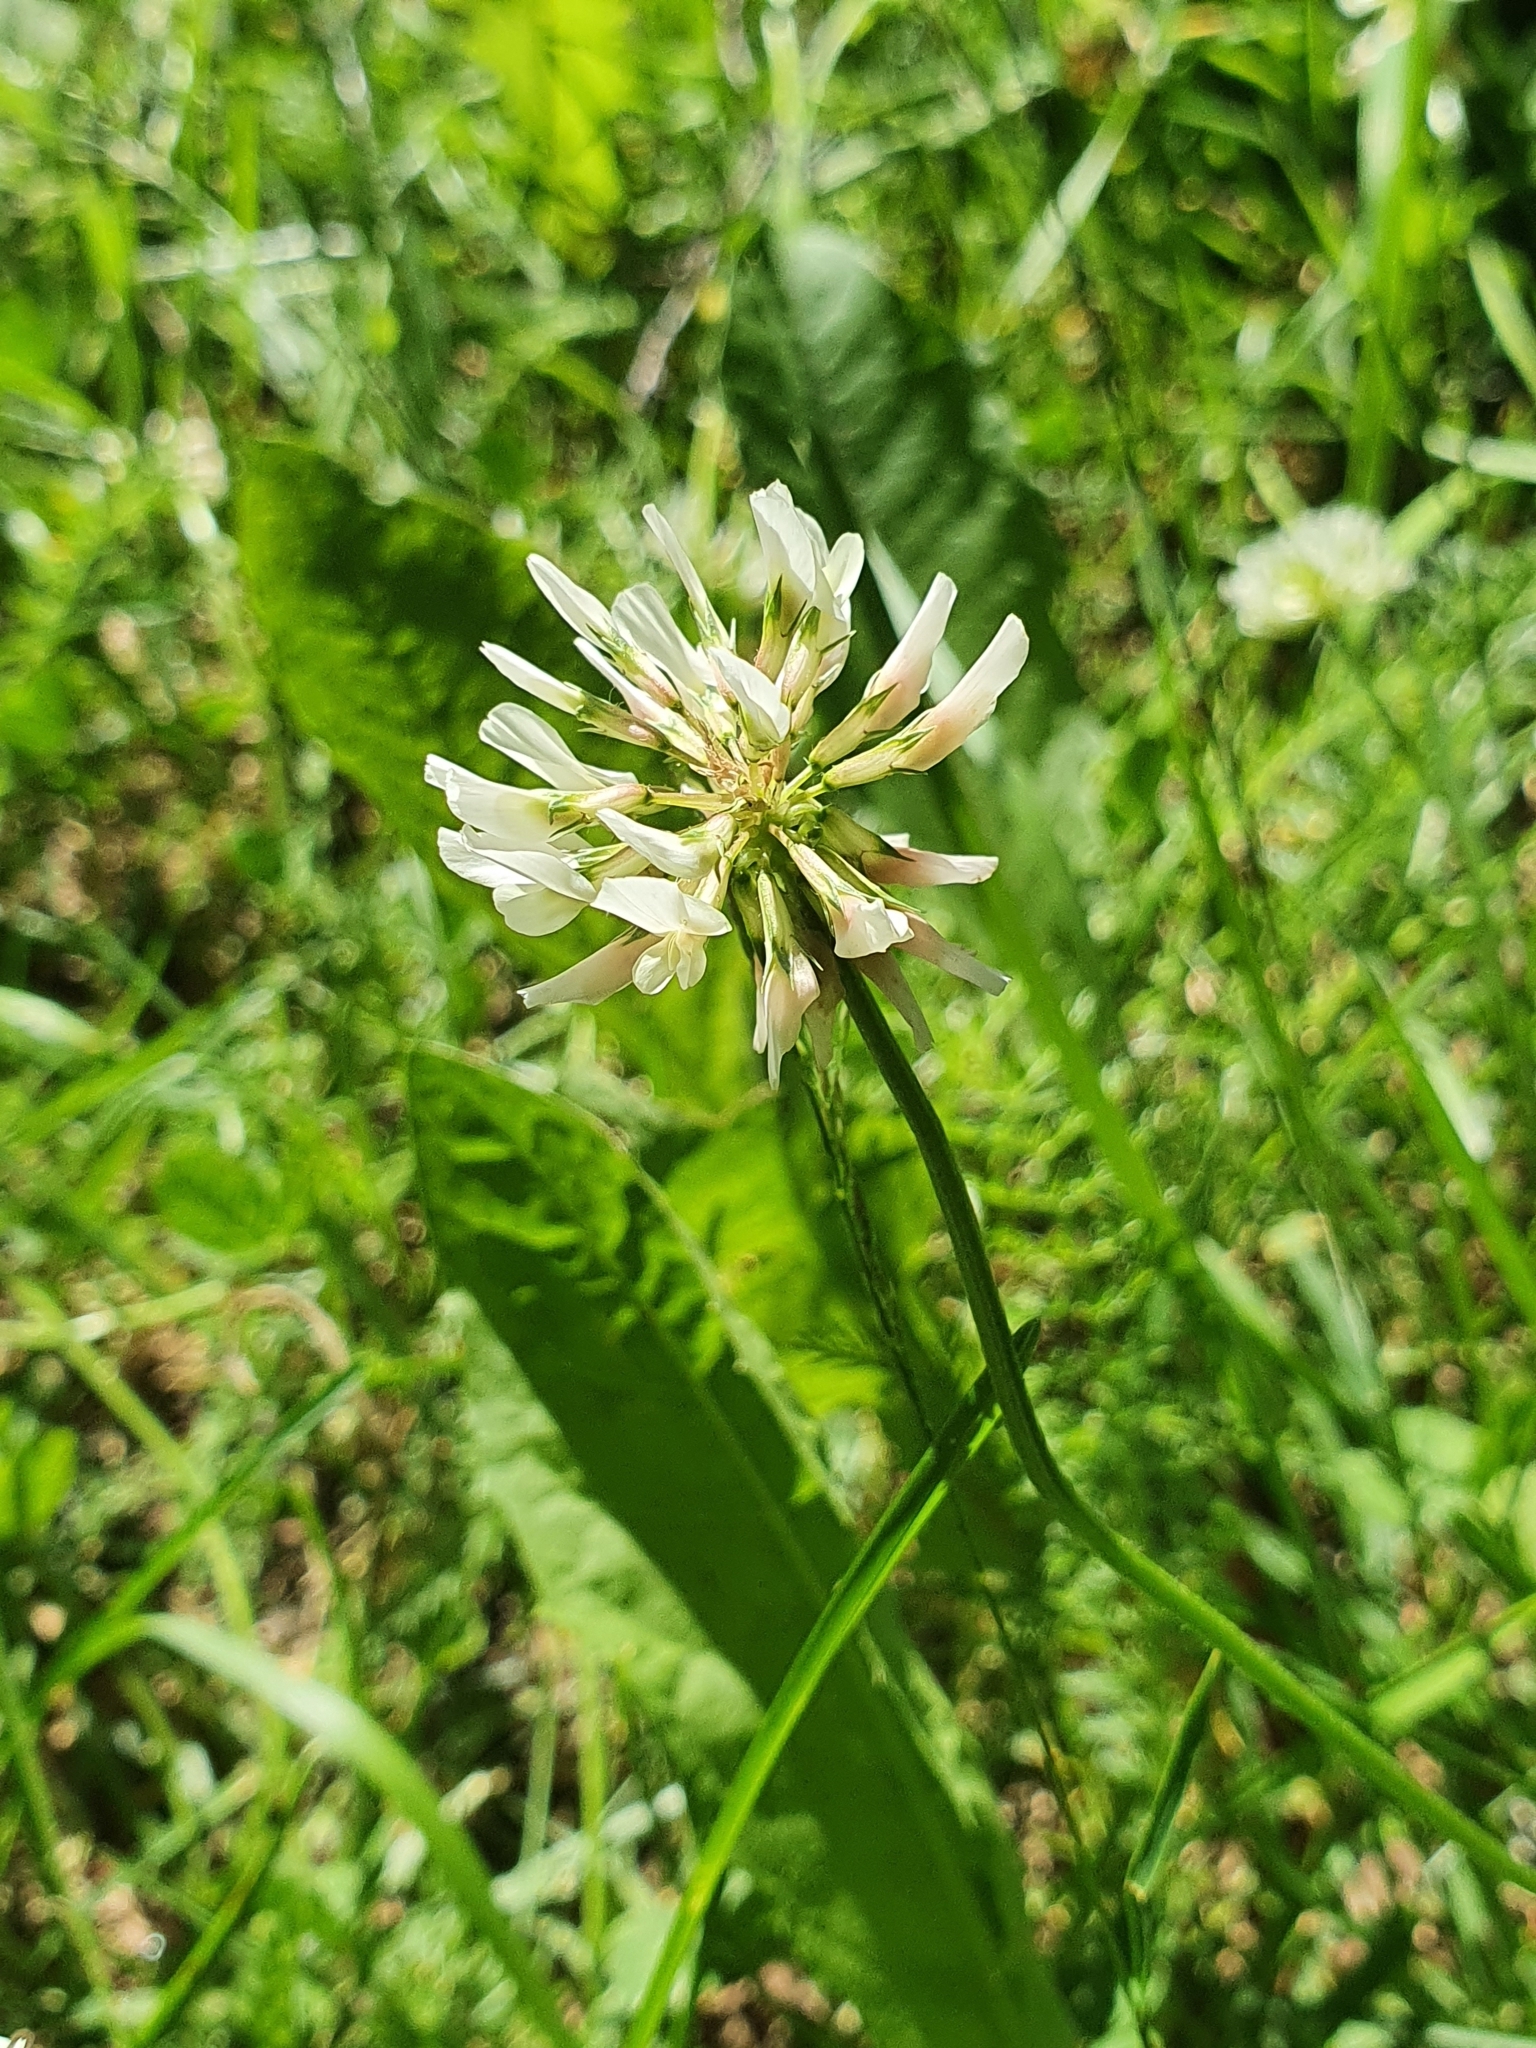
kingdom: Plantae
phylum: Tracheophyta
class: Magnoliopsida
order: Fabales
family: Fabaceae
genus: Trifolium
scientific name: Trifolium repens
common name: White clover
